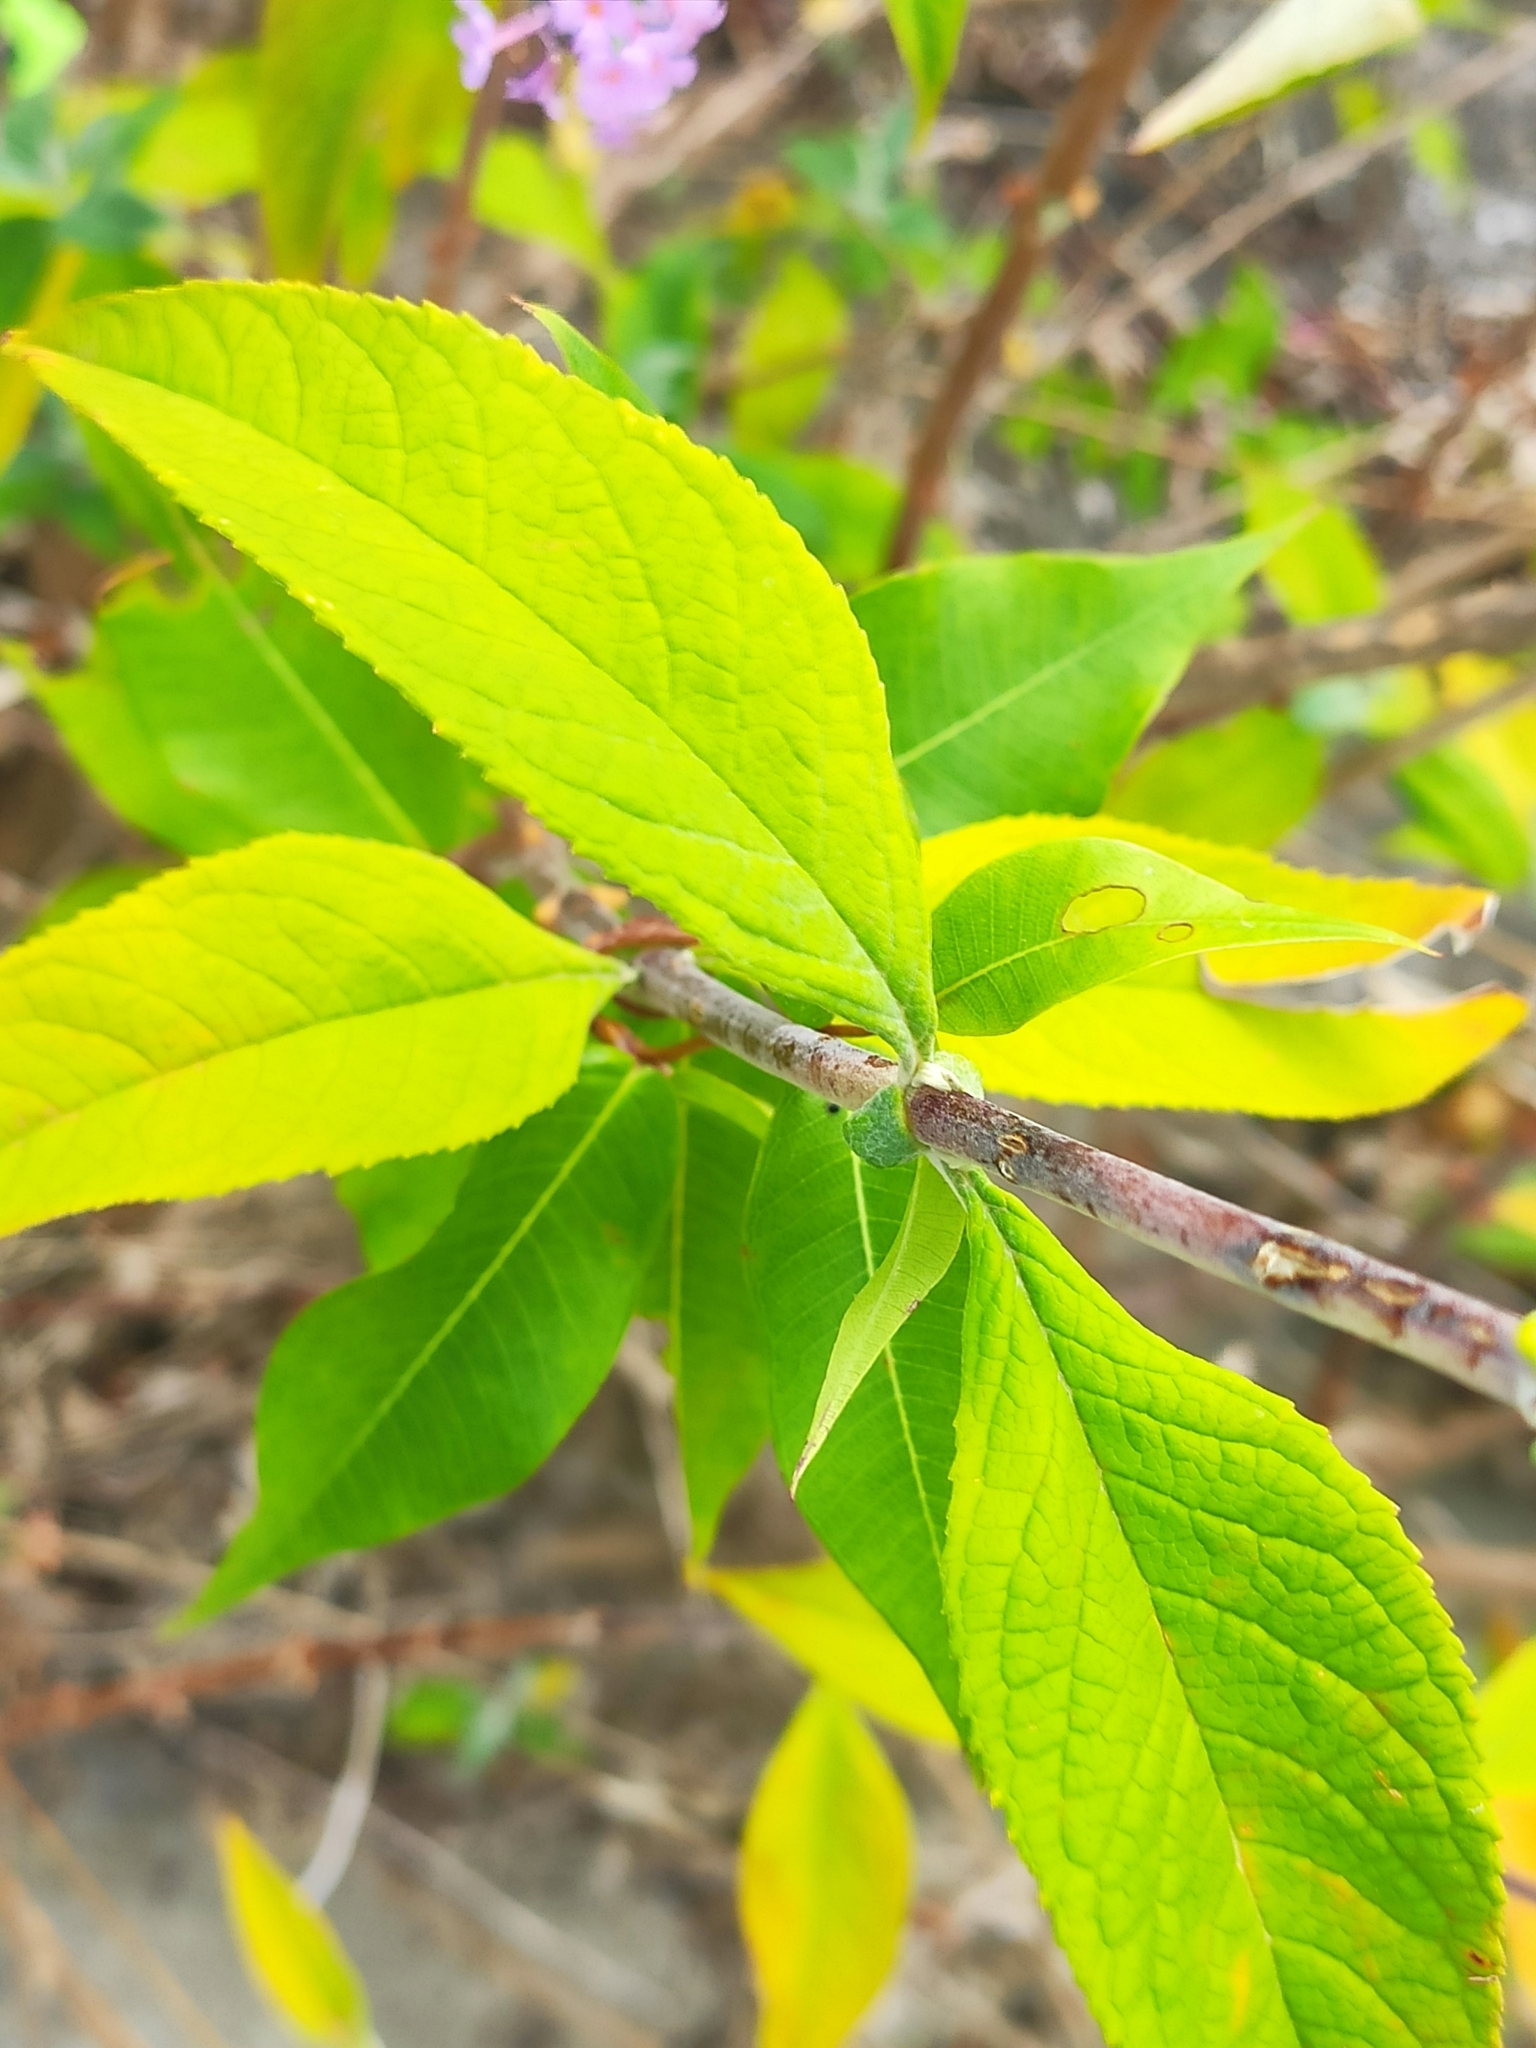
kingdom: Plantae
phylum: Tracheophyta
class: Magnoliopsida
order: Lamiales
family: Scrophulariaceae
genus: Buddleja
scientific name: Buddleja davidii
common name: Butterfly-bush
